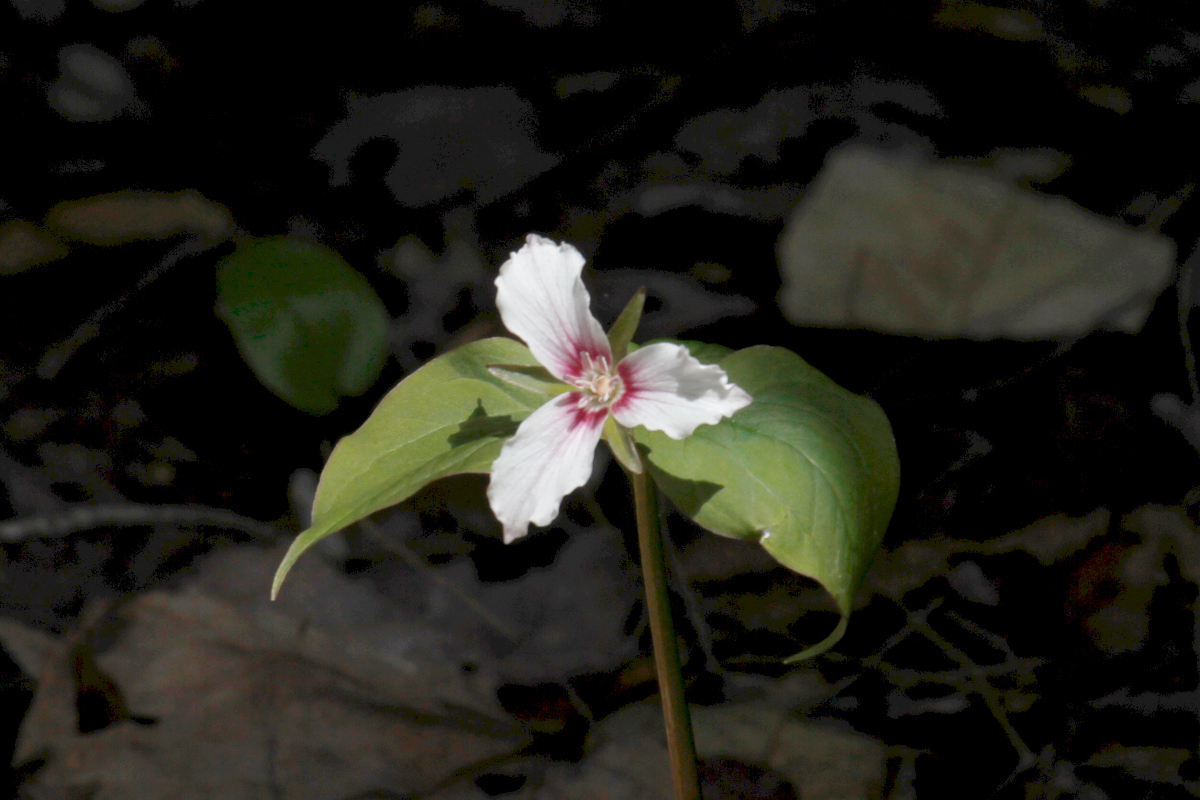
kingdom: Plantae
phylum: Tracheophyta
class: Liliopsida
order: Liliales
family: Melanthiaceae
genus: Trillium
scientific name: Trillium undulatum
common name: Paint trillium
